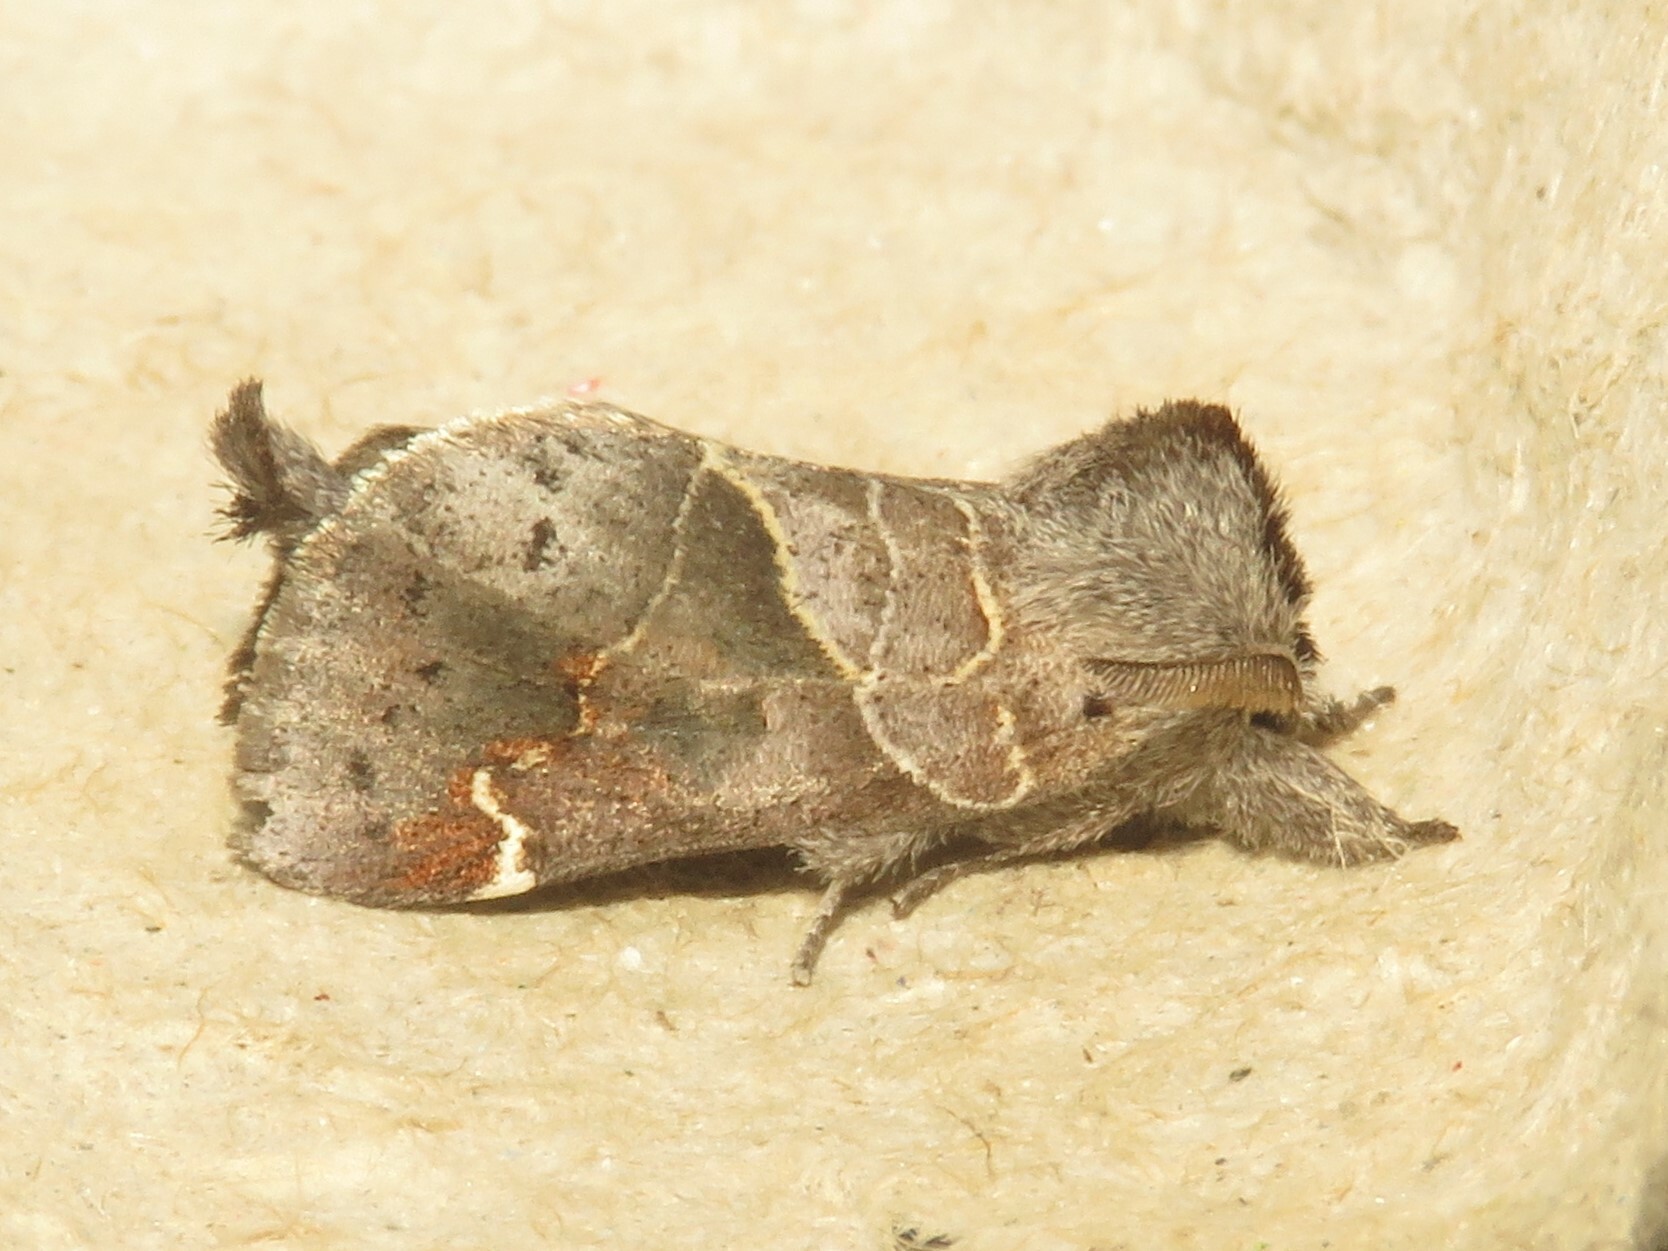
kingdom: Animalia
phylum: Arthropoda
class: Insecta
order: Lepidoptera
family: Notodontidae
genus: Clostera
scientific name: Clostera apicalis
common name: Apical prominent
